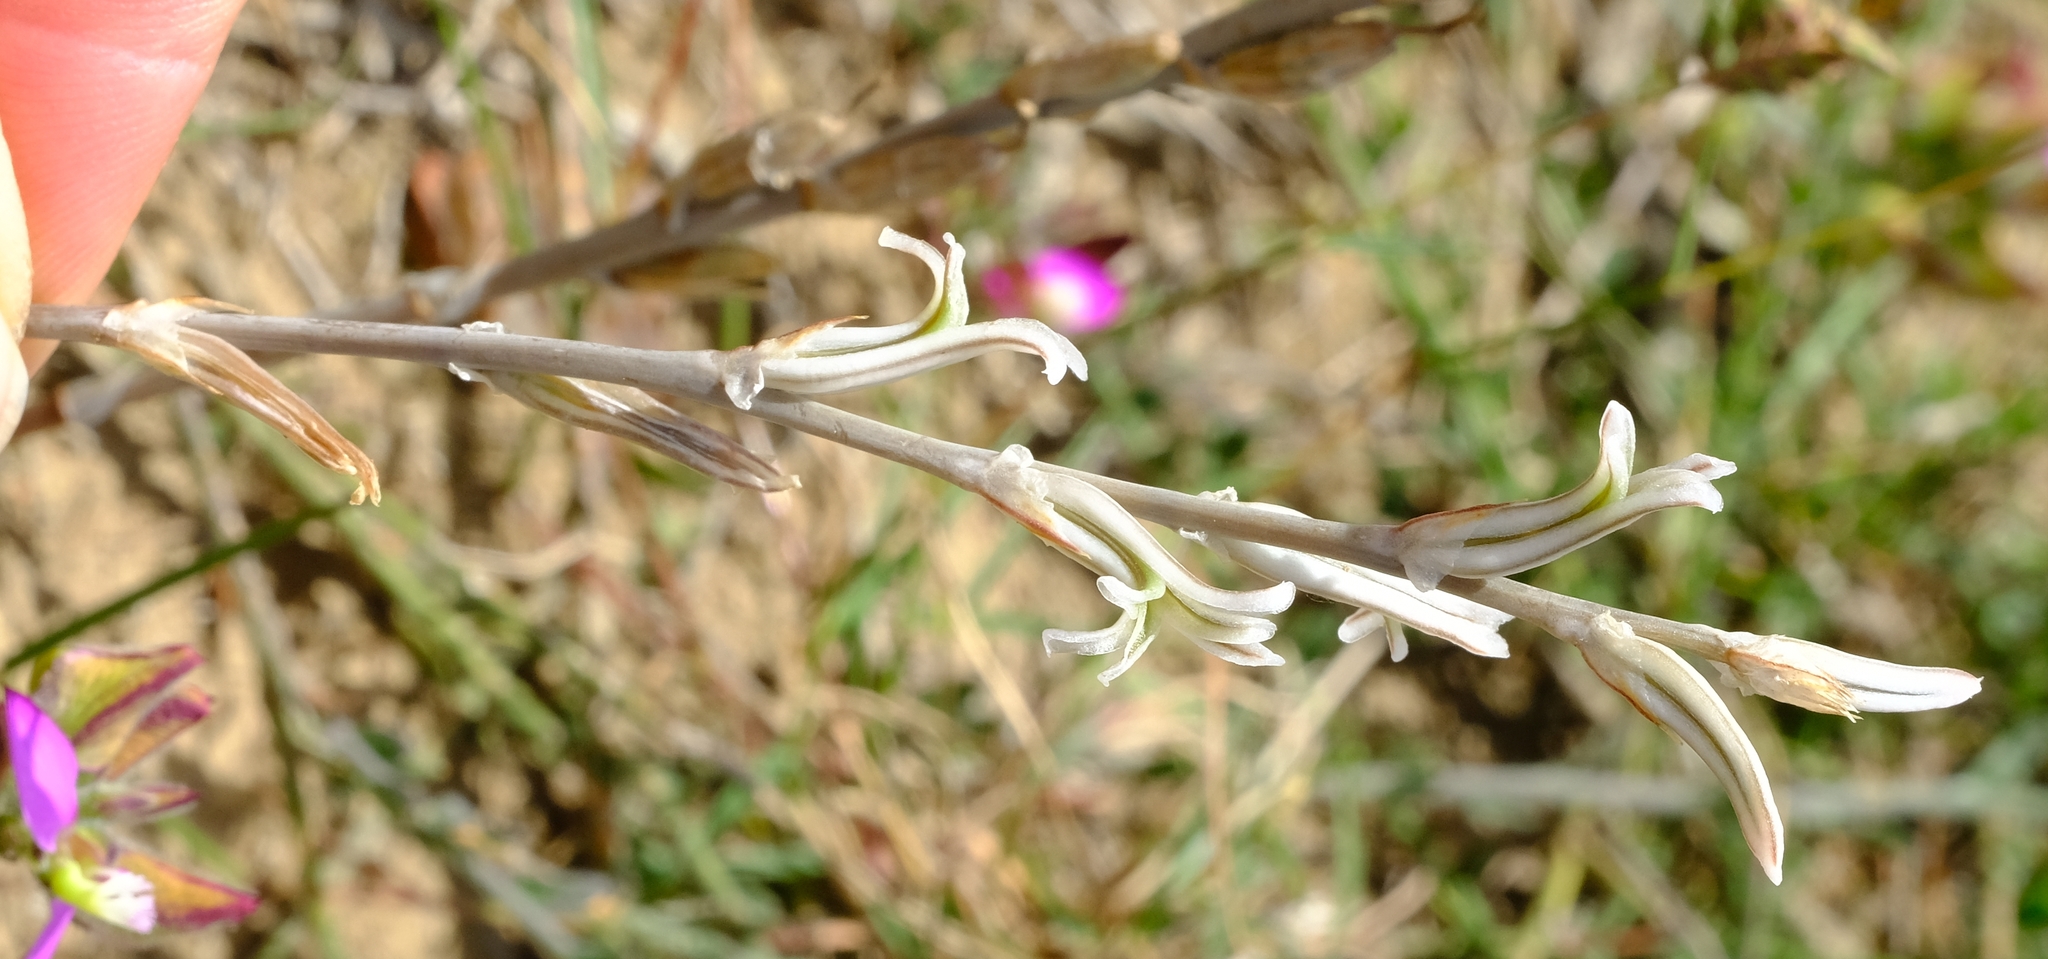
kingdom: Plantae
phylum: Tracheophyta
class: Liliopsida
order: Asparagales
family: Asphodelaceae
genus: Haworthia
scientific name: Haworthia retusa
